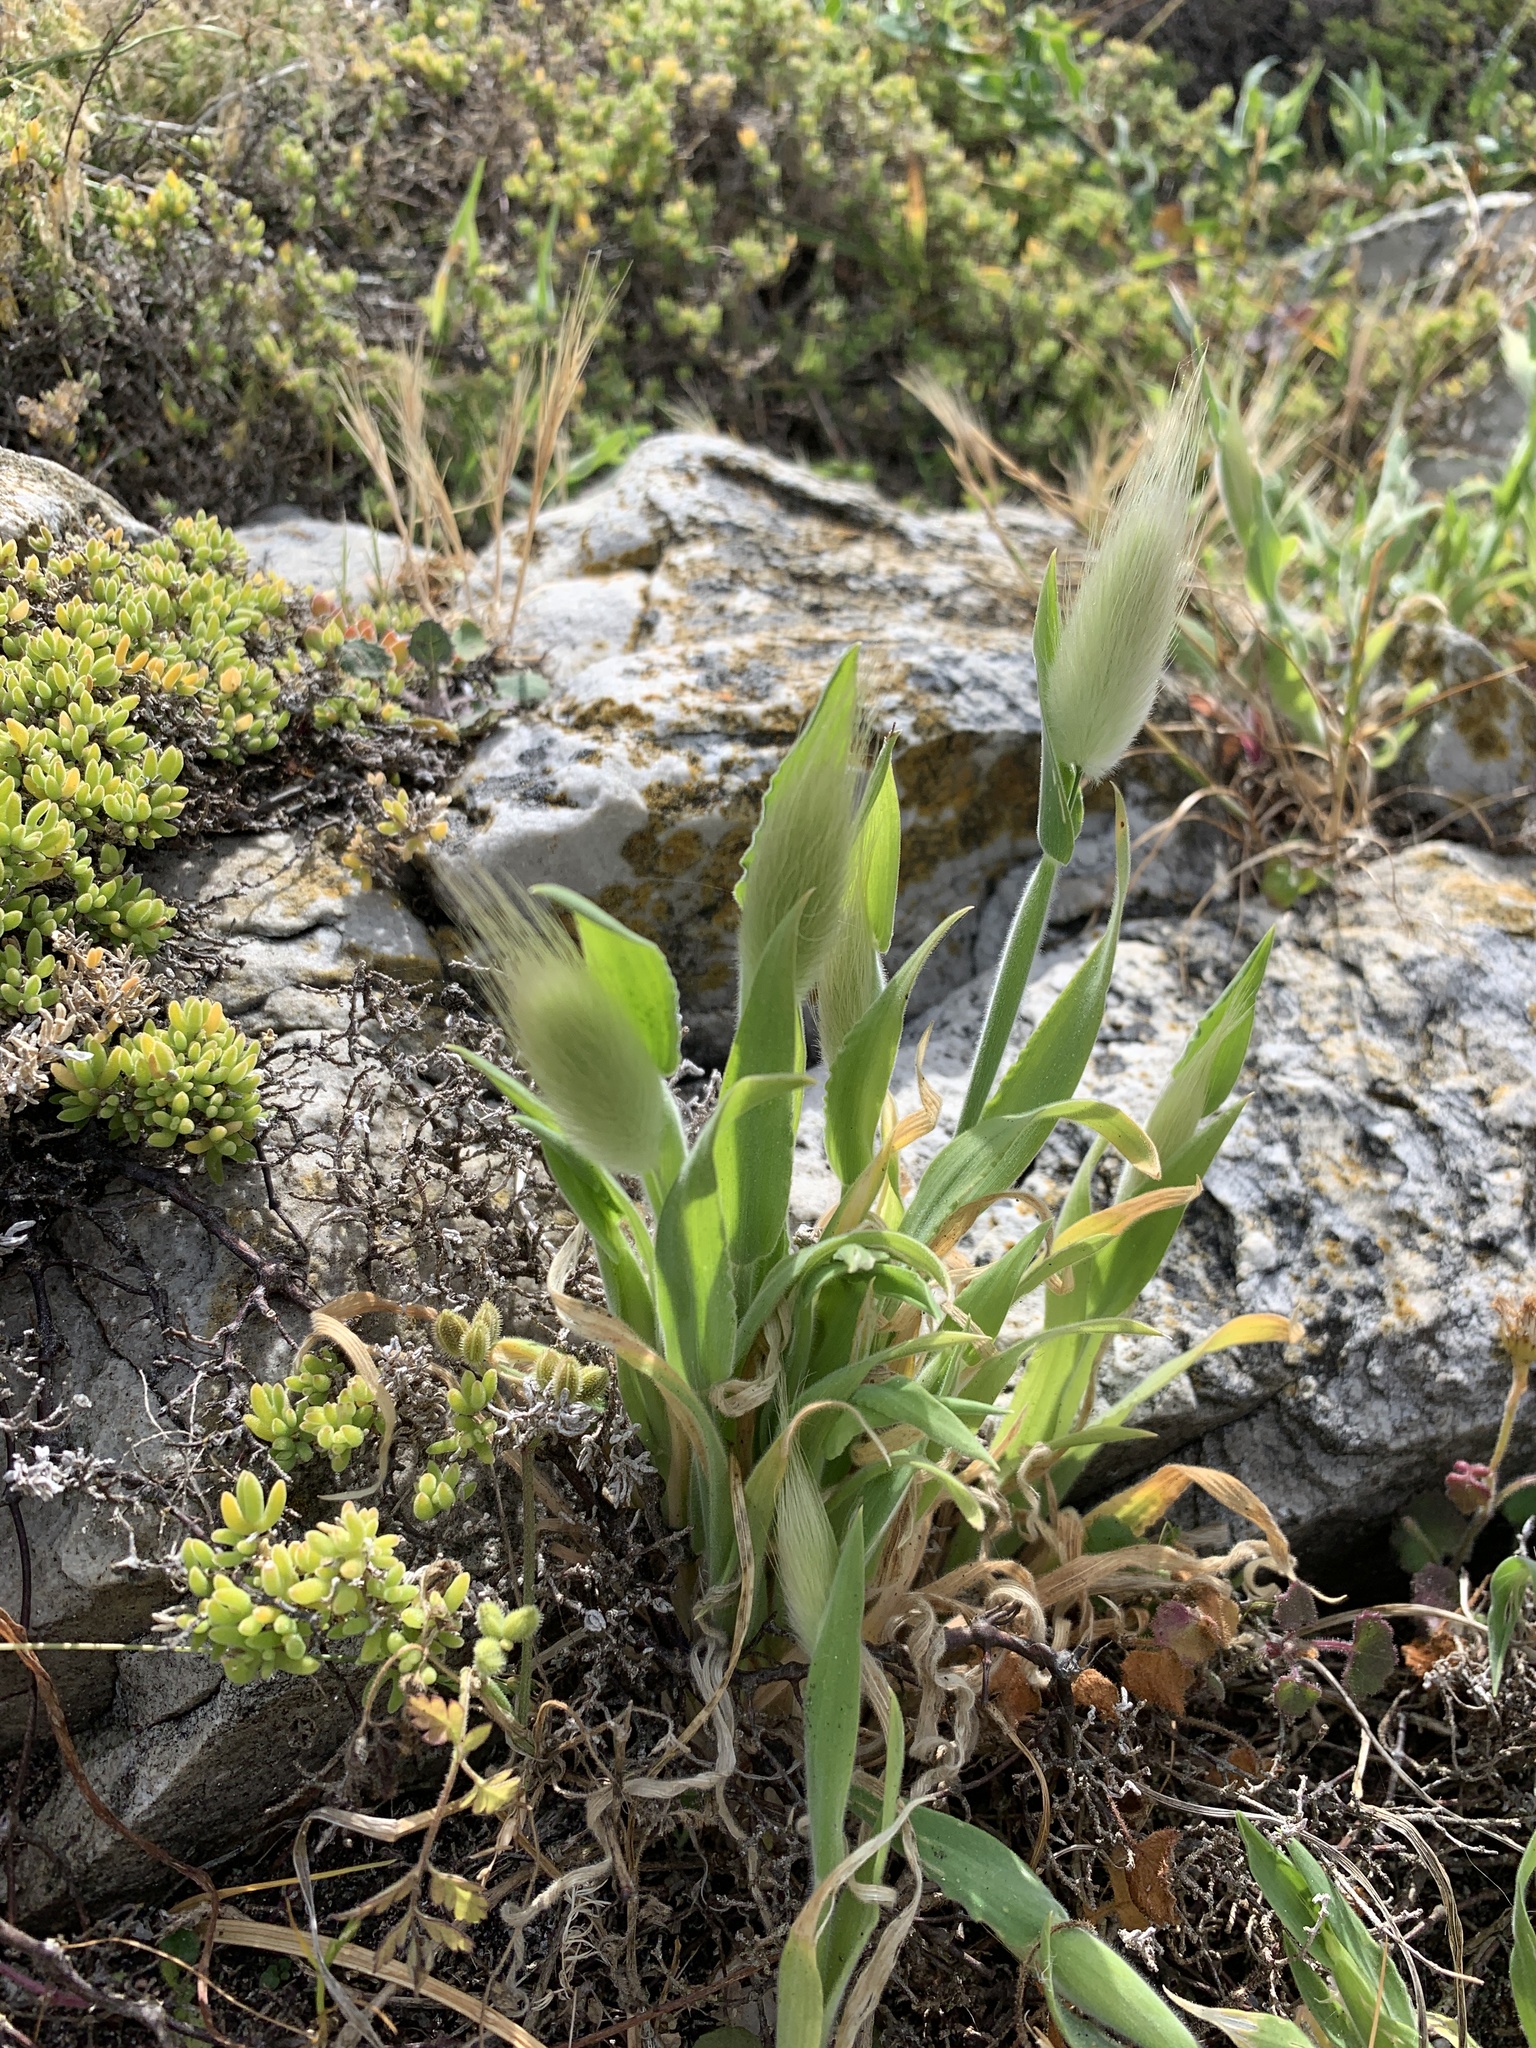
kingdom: Plantae
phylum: Tracheophyta
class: Liliopsida
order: Poales
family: Poaceae
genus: Lagurus
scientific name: Lagurus ovatus
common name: Hare's-tail
